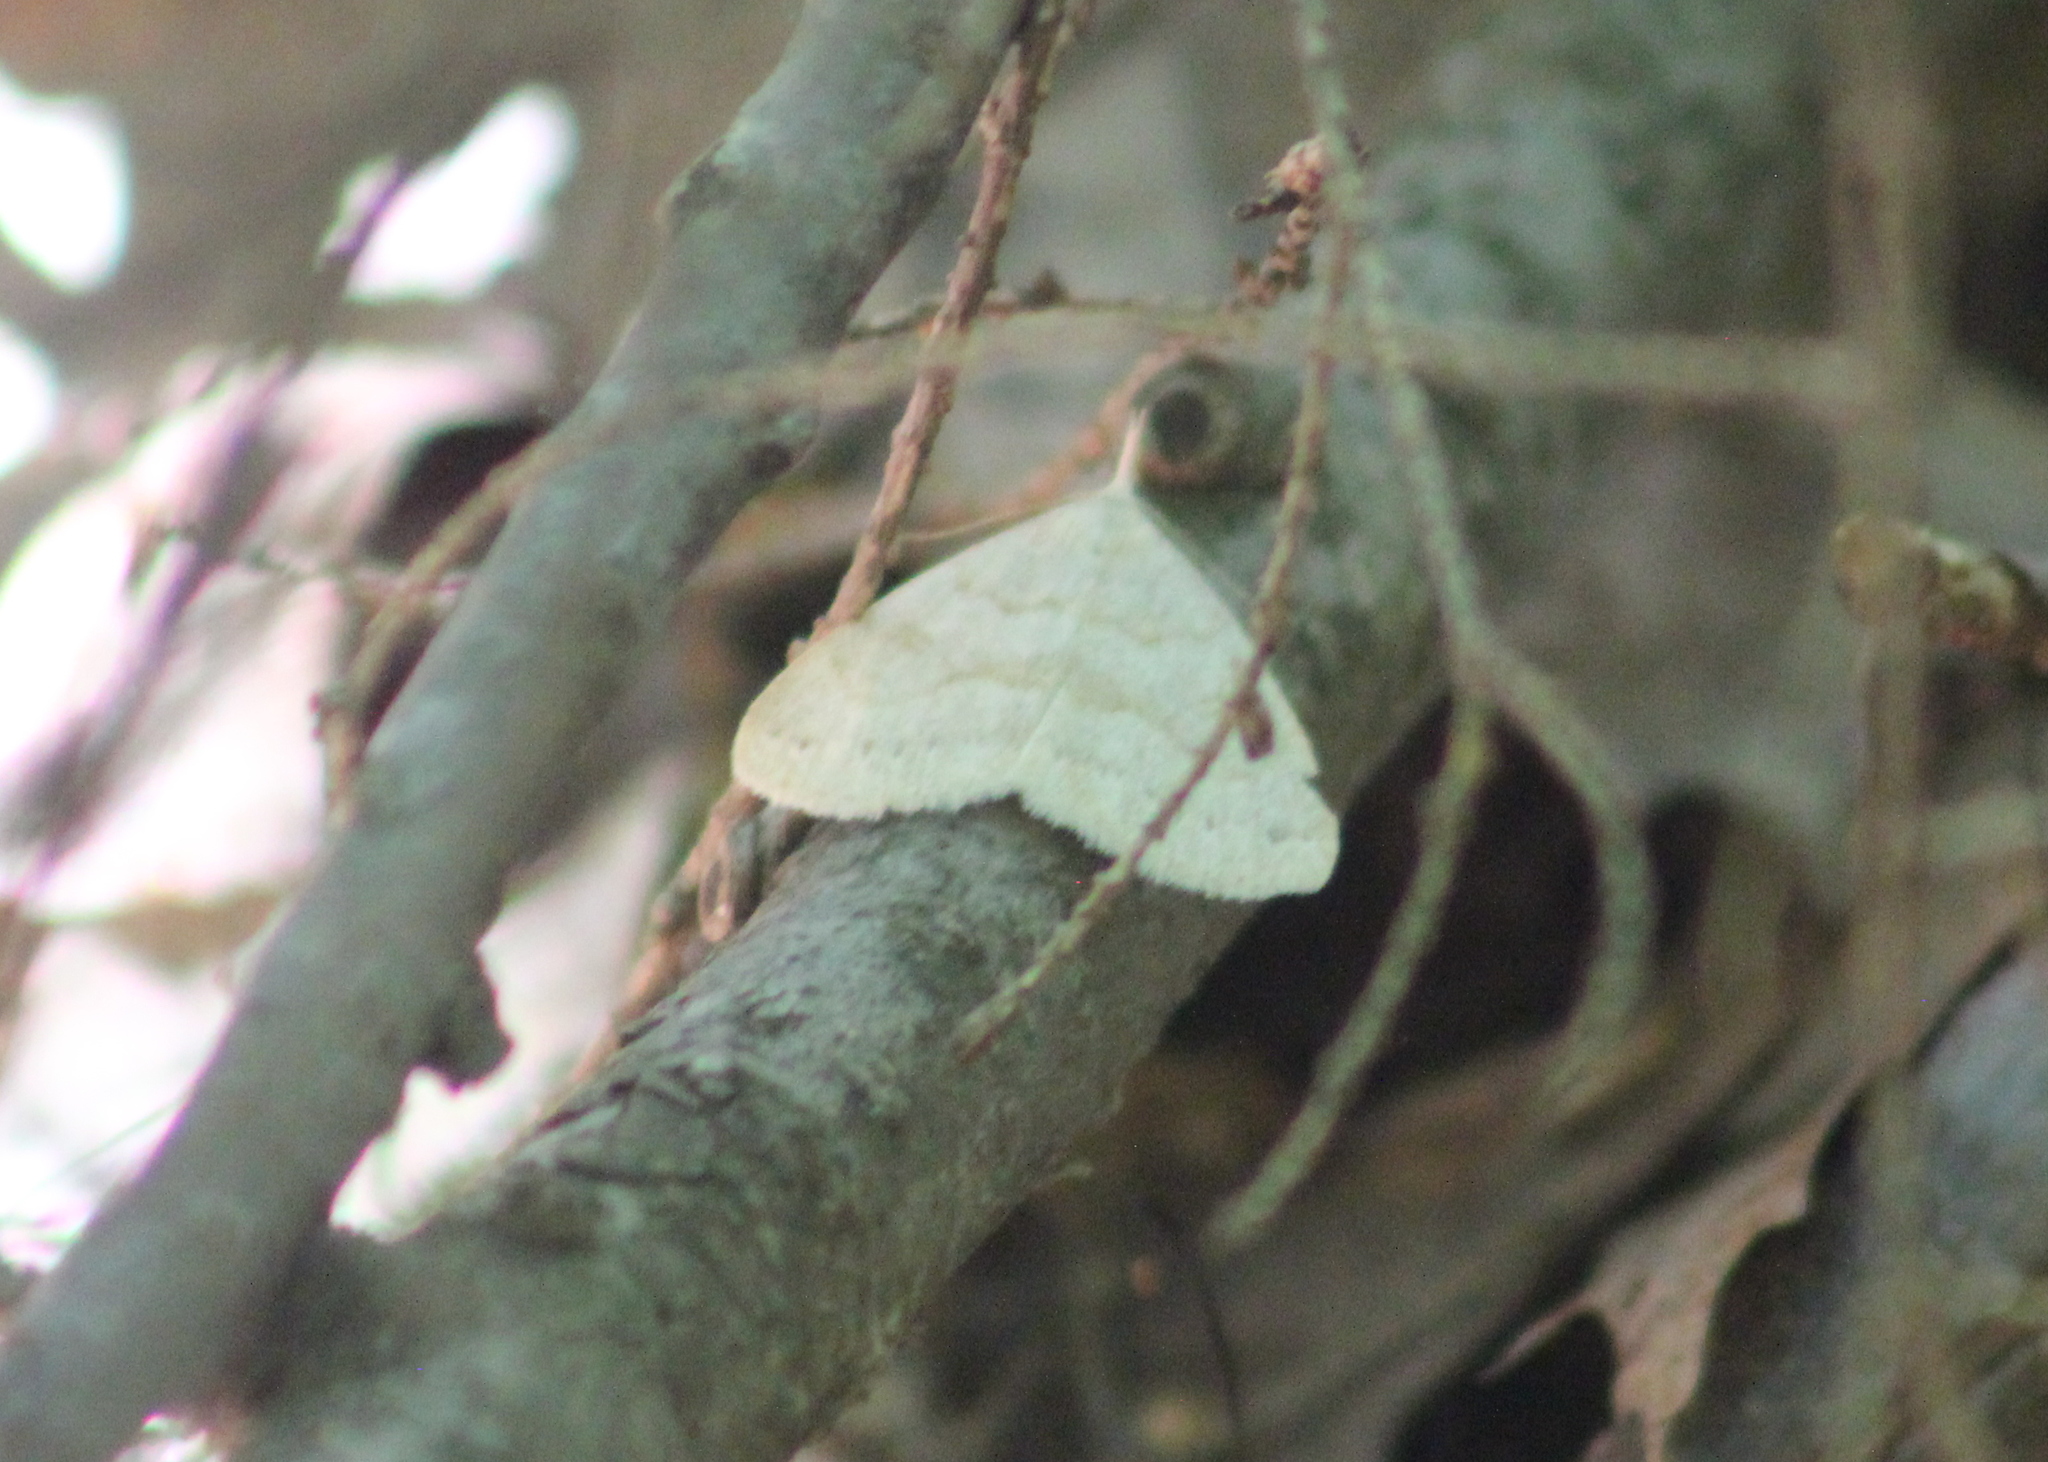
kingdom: Animalia
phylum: Arthropoda
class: Insecta
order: Lepidoptera
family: Erebidae
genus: Macrochilo
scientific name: Macrochilo morbidalis
